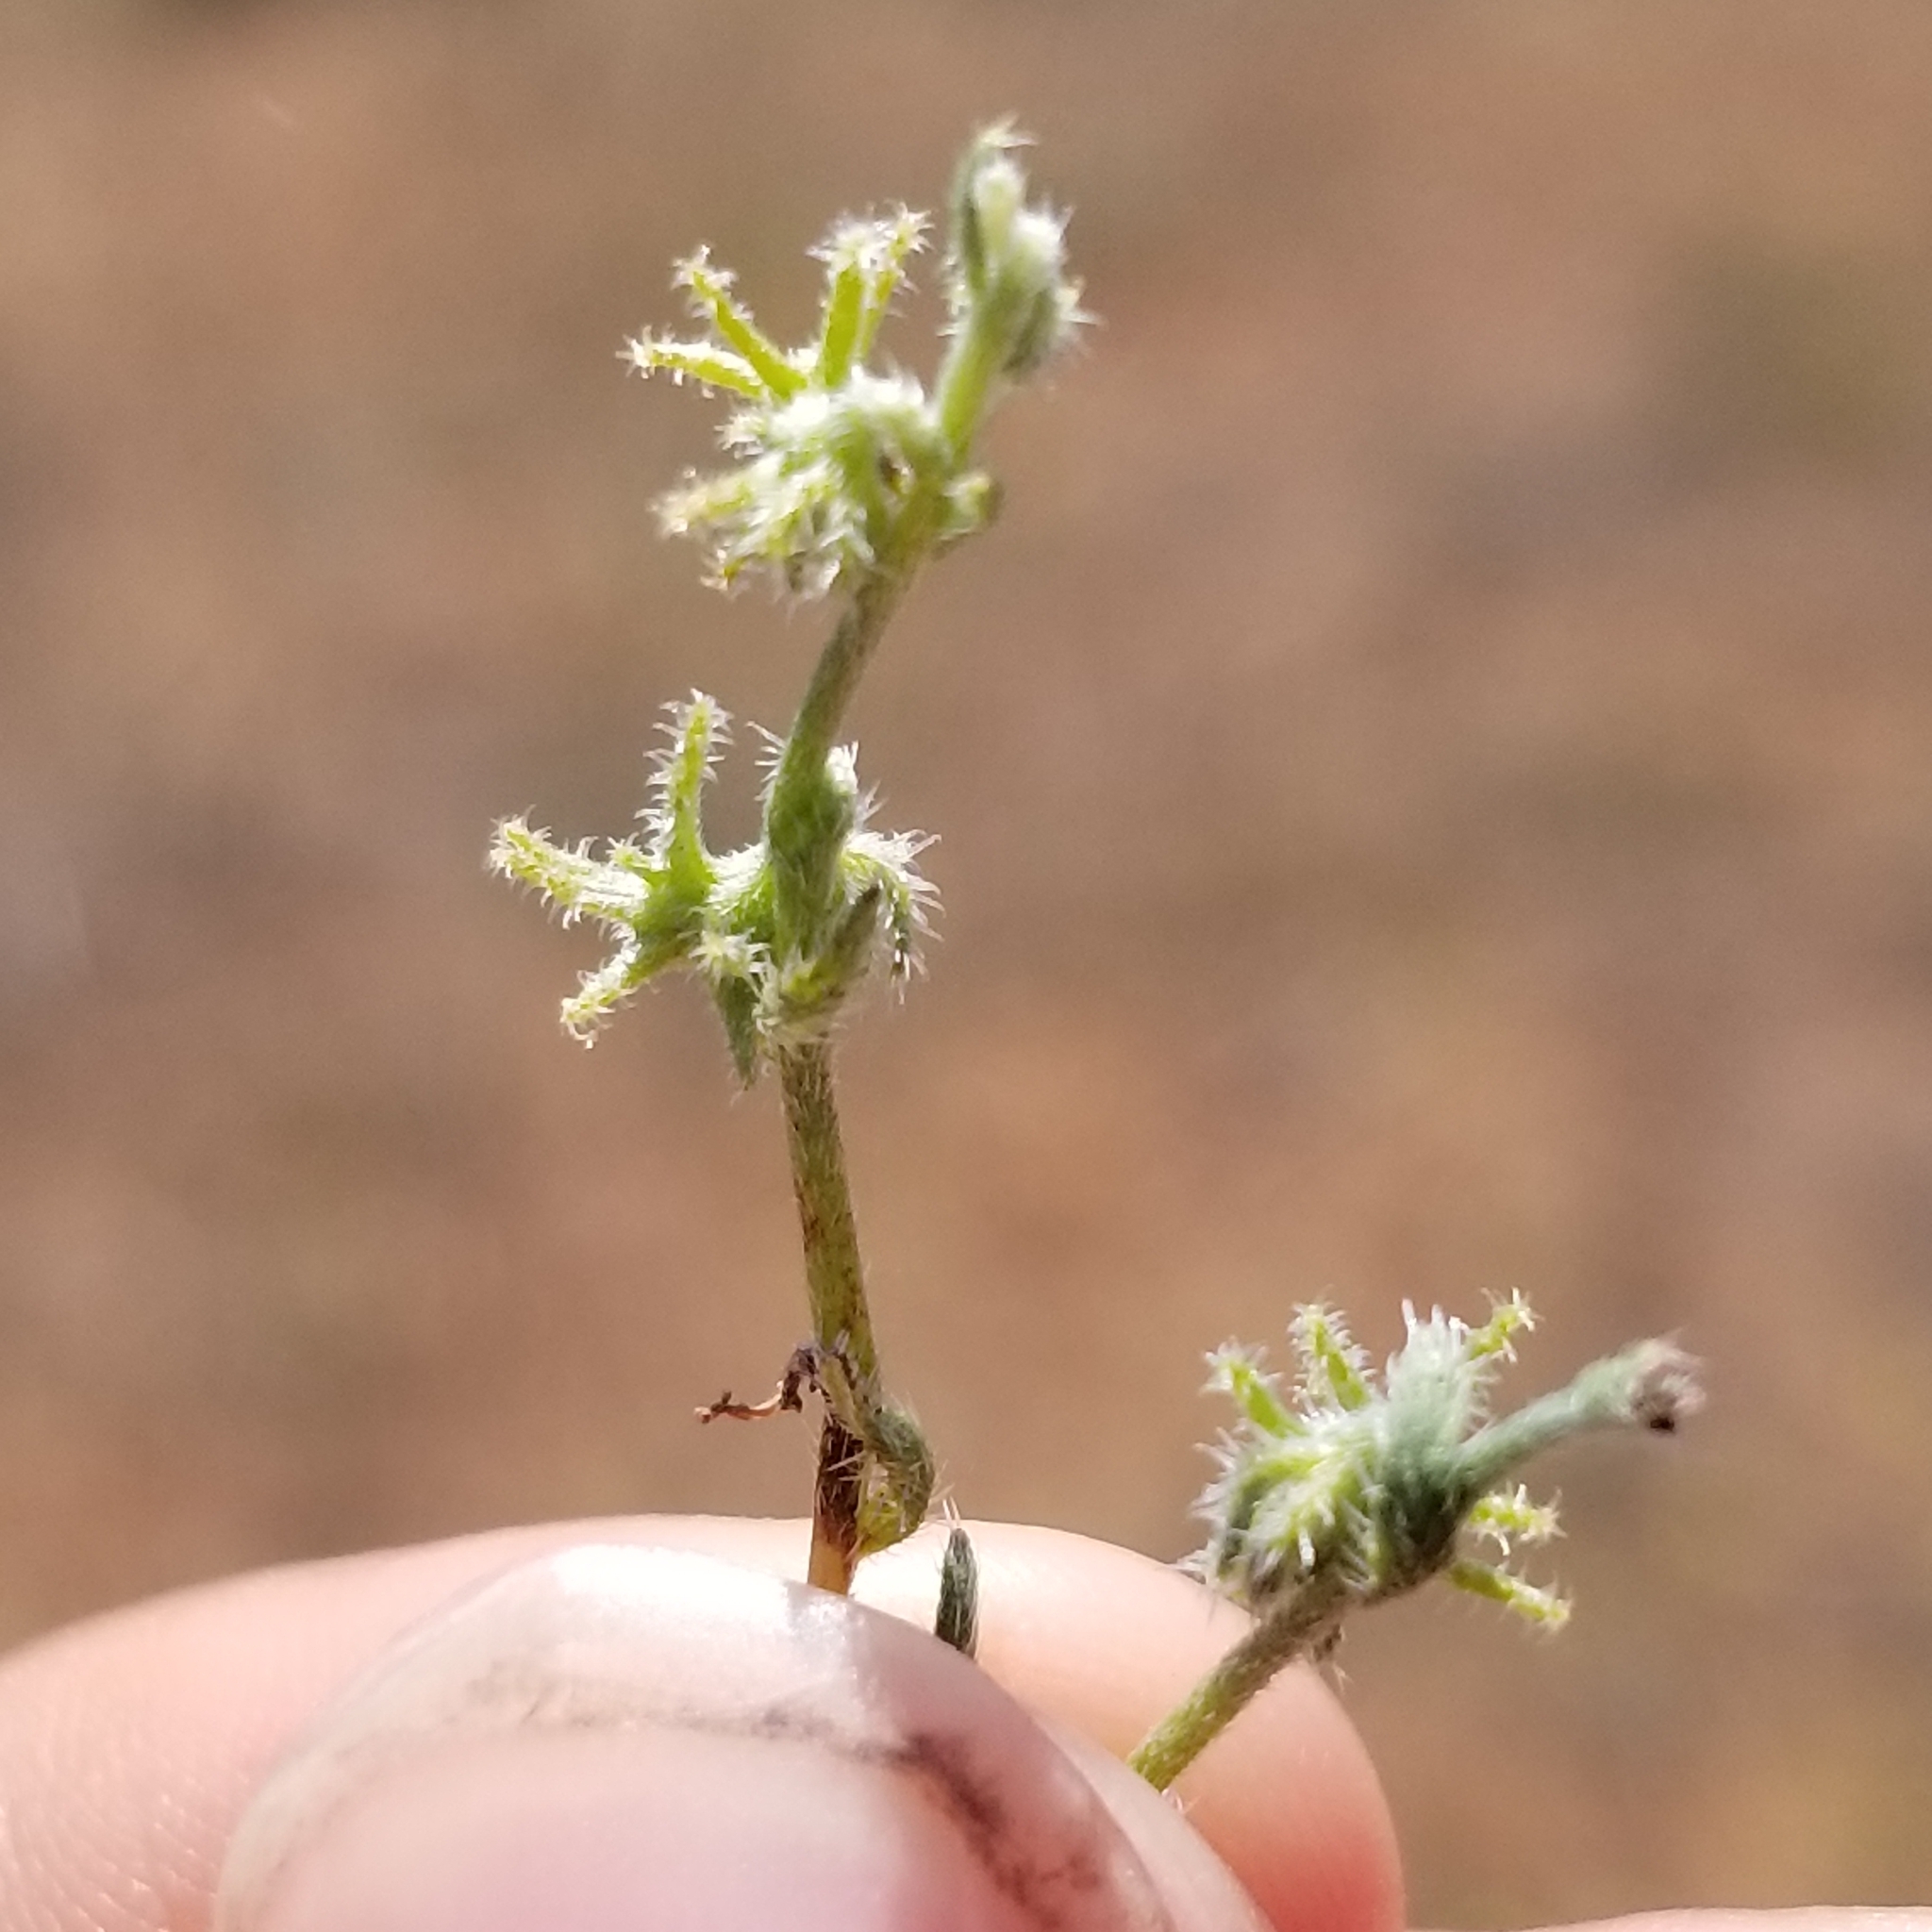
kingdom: Plantae
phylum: Tracheophyta
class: Magnoliopsida
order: Boraginales
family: Boraginaceae
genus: Harpagonella
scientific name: Harpagonella palmeri
